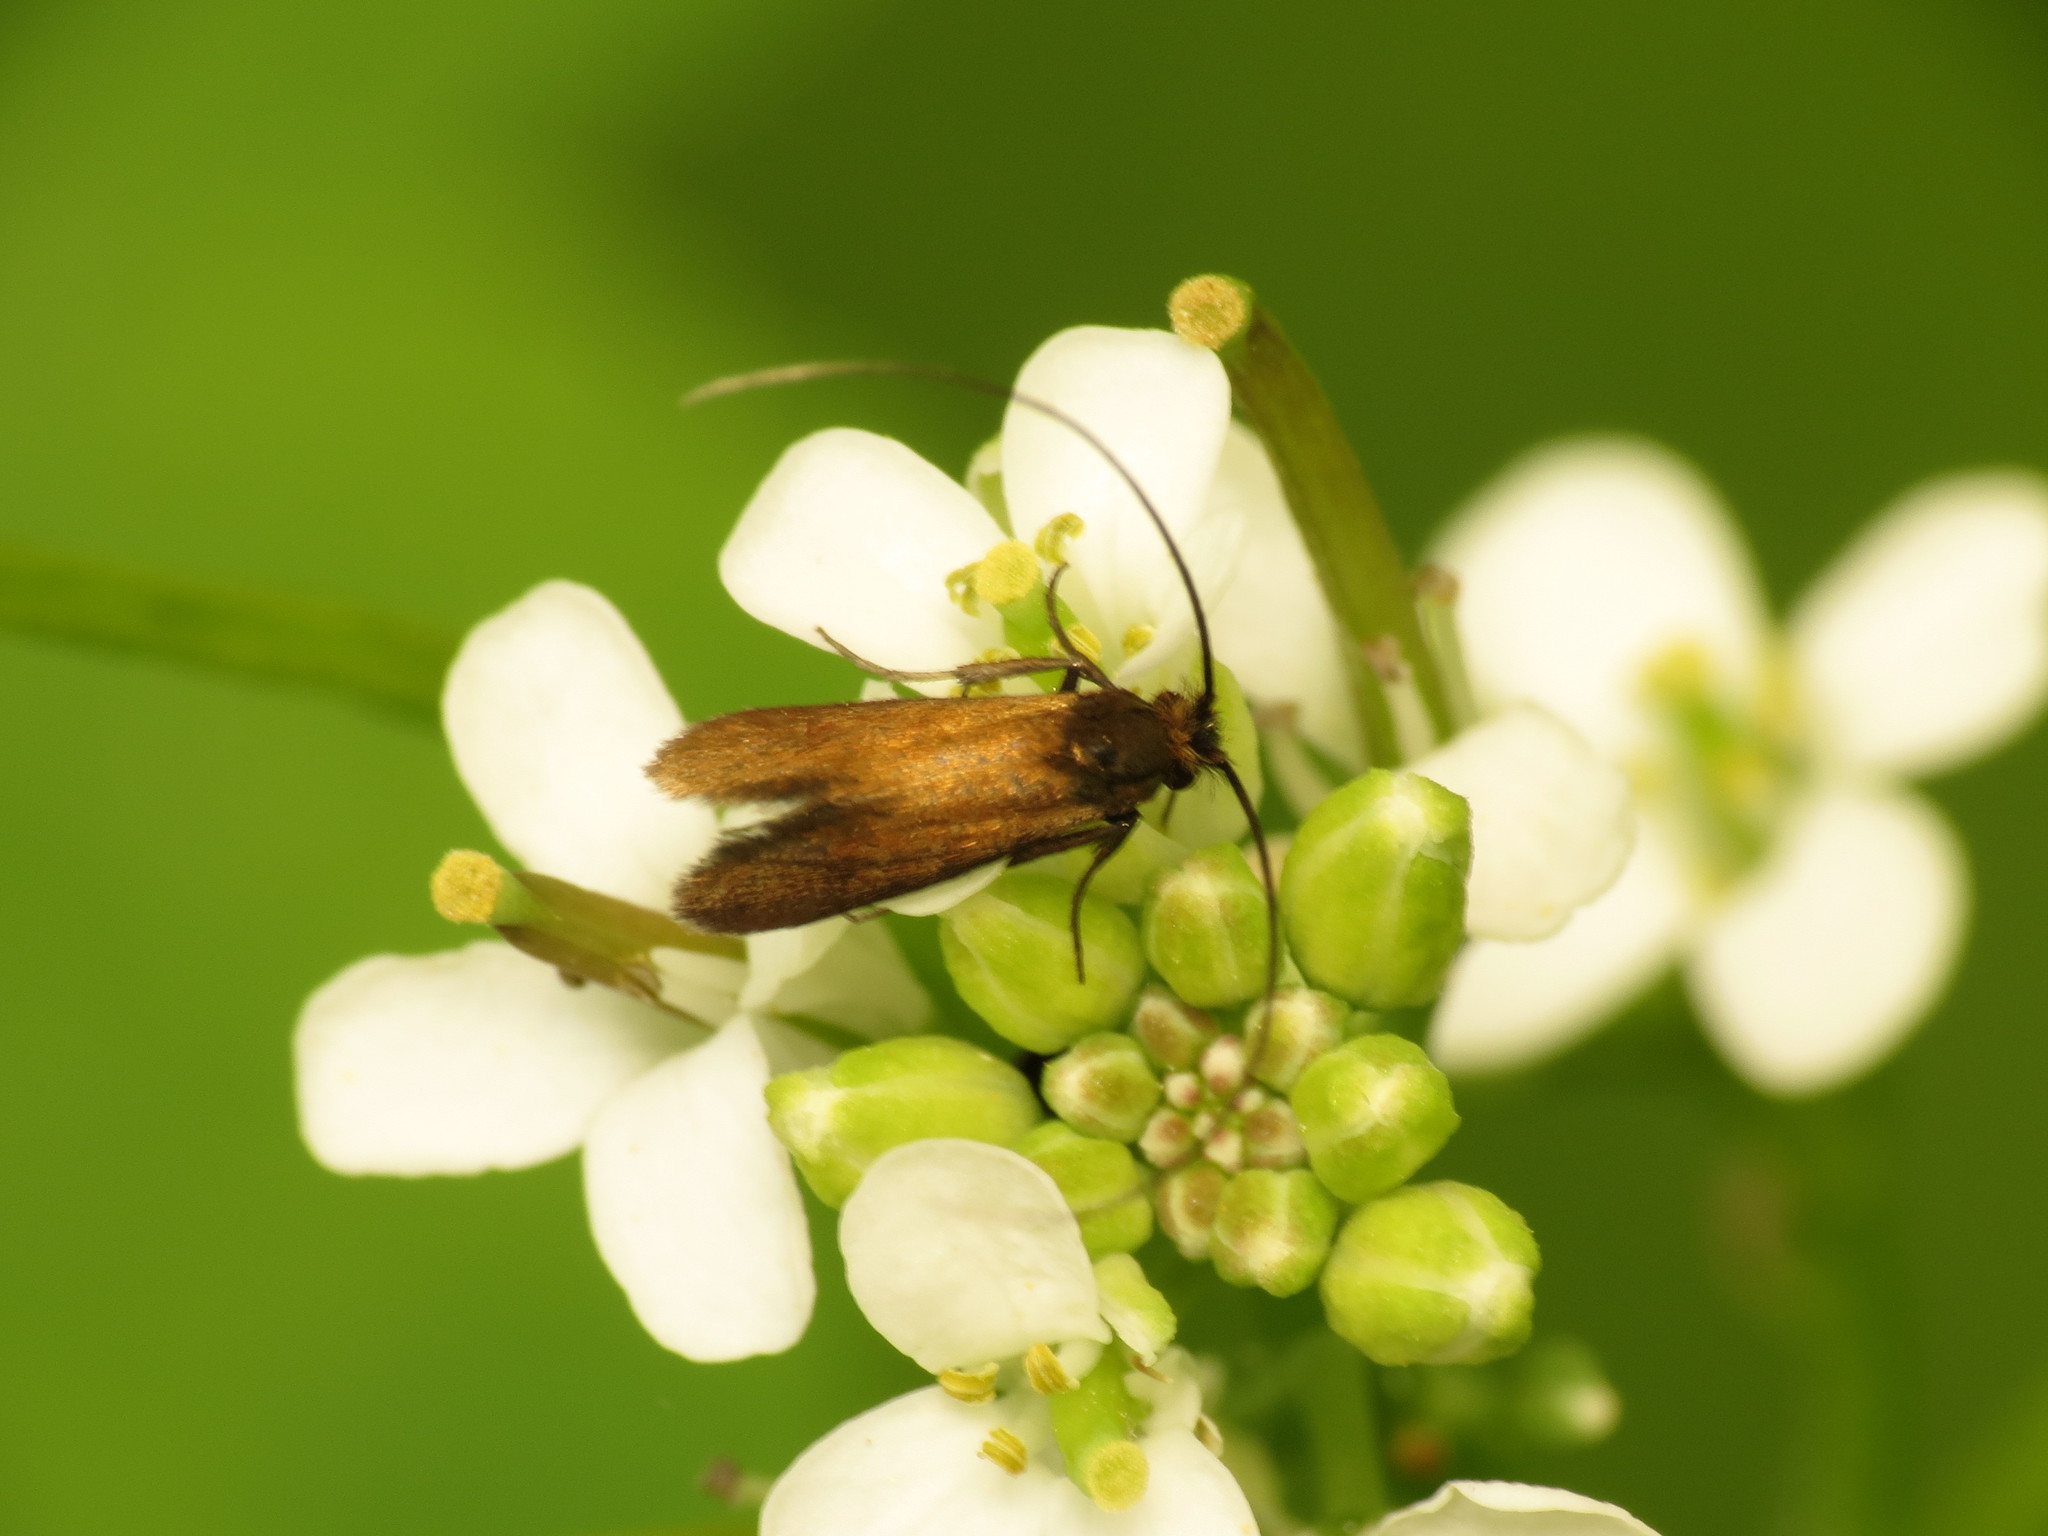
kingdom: Animalia
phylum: Arthropoda
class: Insecta
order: Lepidoptera
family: Adelidae
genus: Cauchas
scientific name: Cauchas rufimitrella
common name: Meadow long-horn
